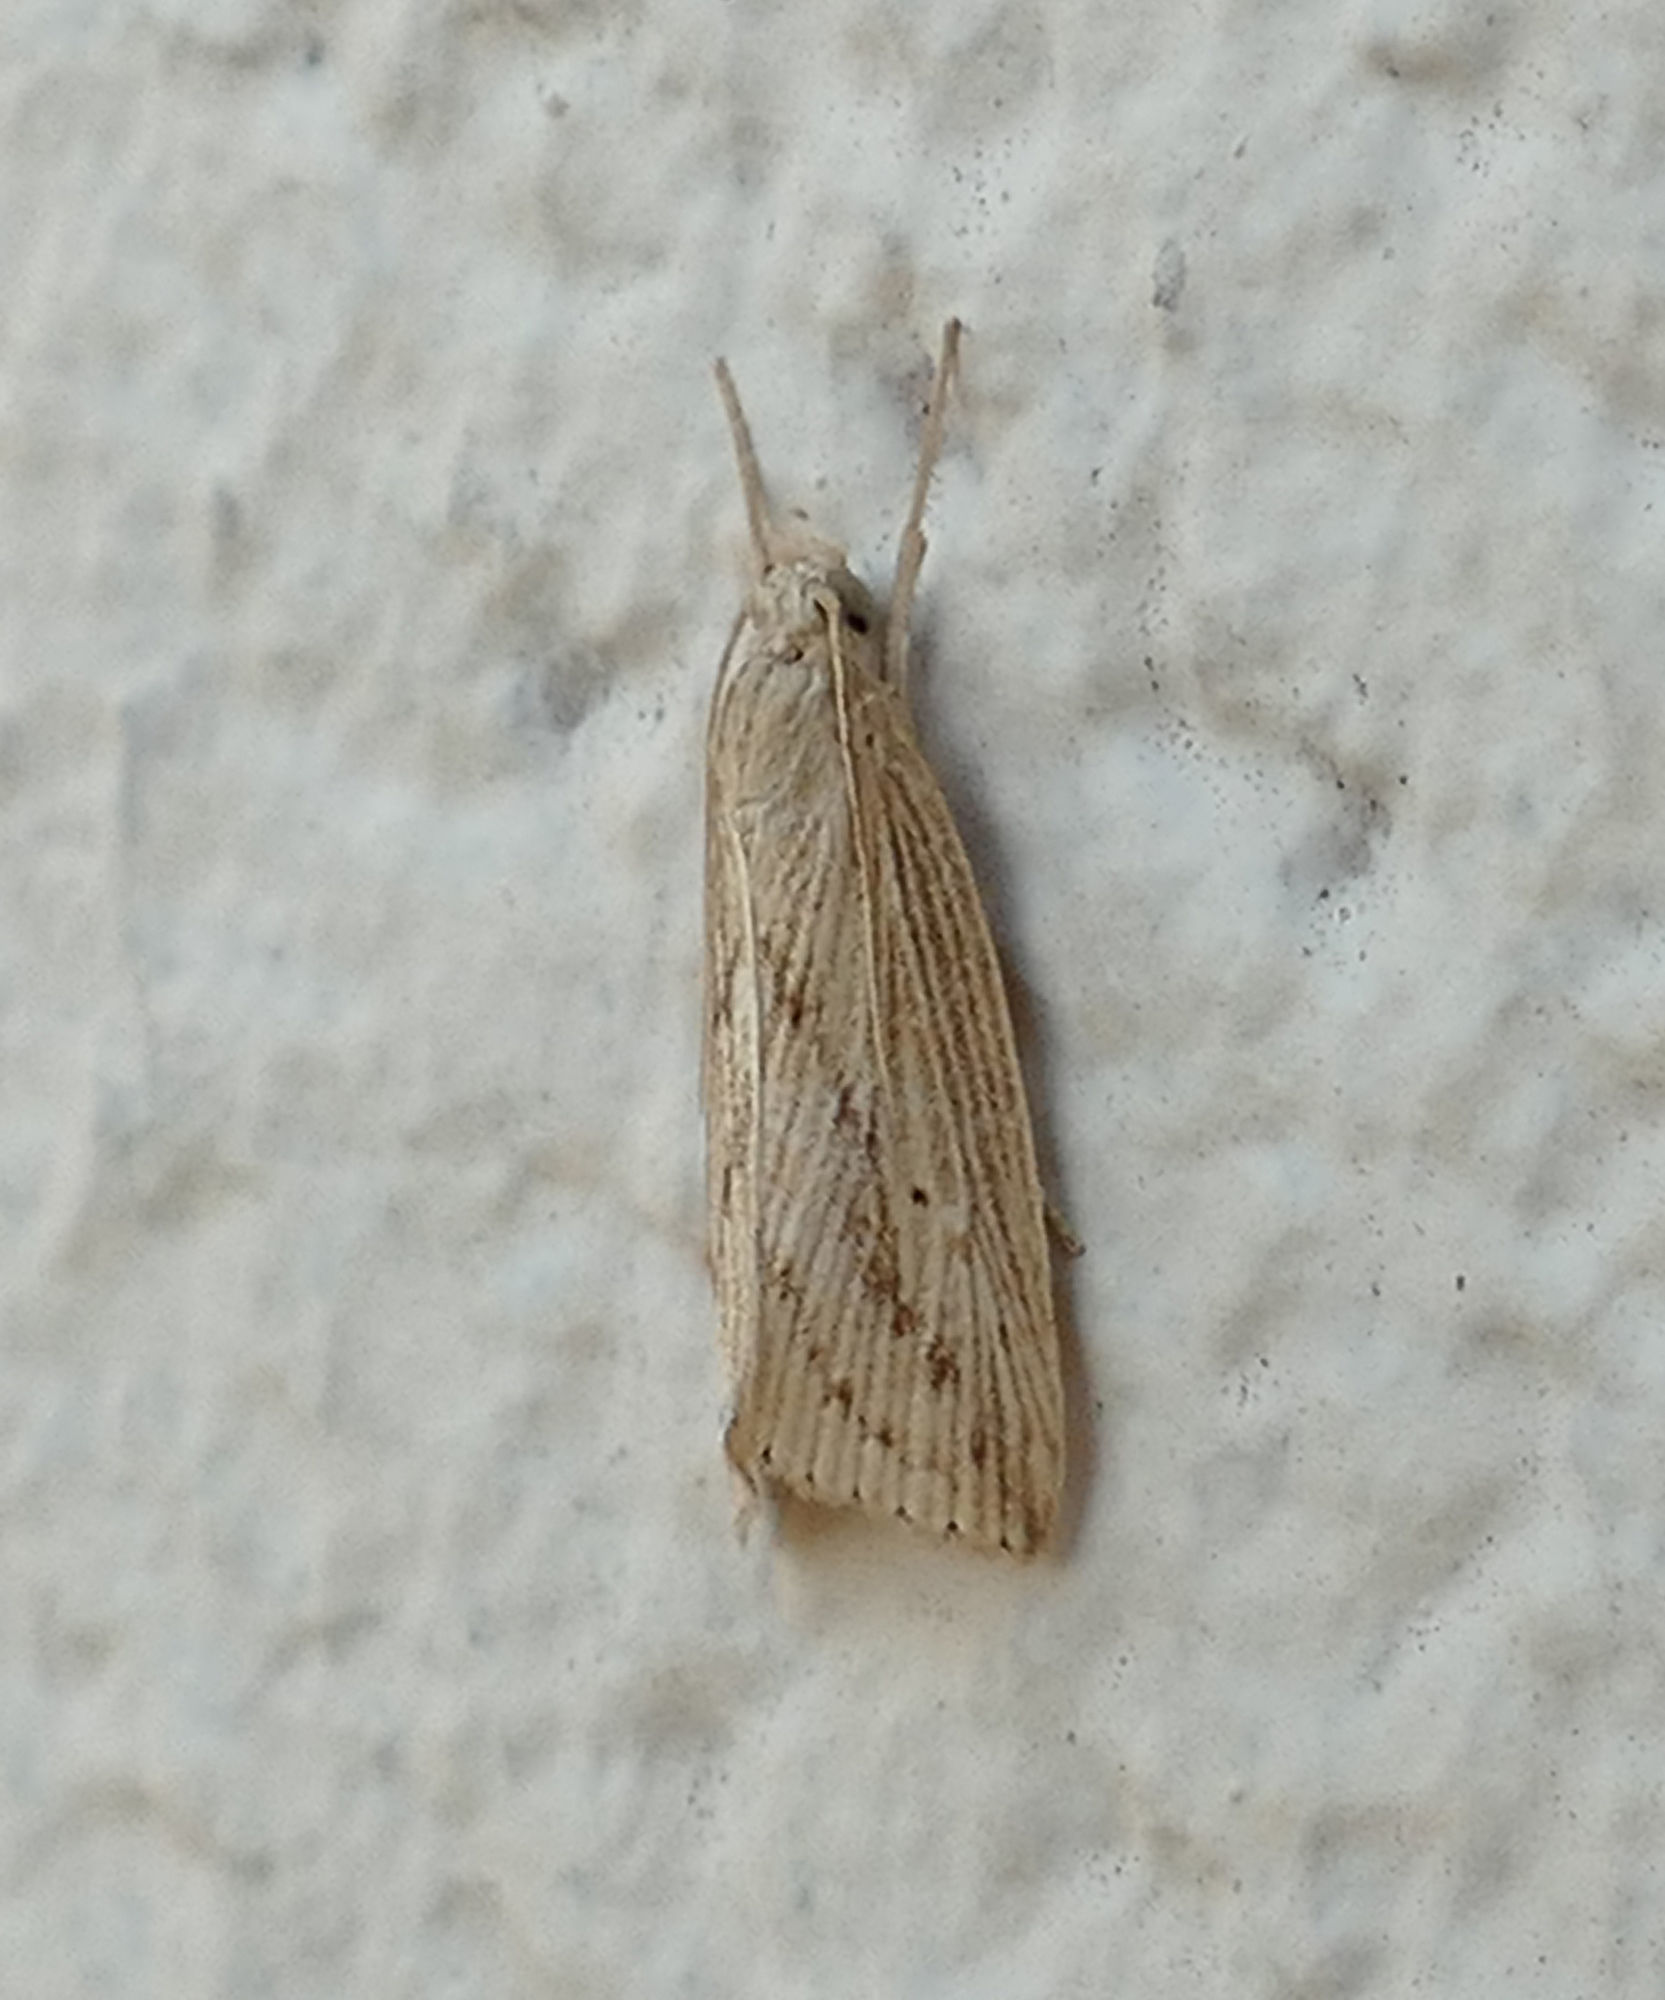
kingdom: Animalia
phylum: Arthropoda
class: Insecta
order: Lepidoptera
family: Crambidae
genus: Diatraea
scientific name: Diatraea lisetta
